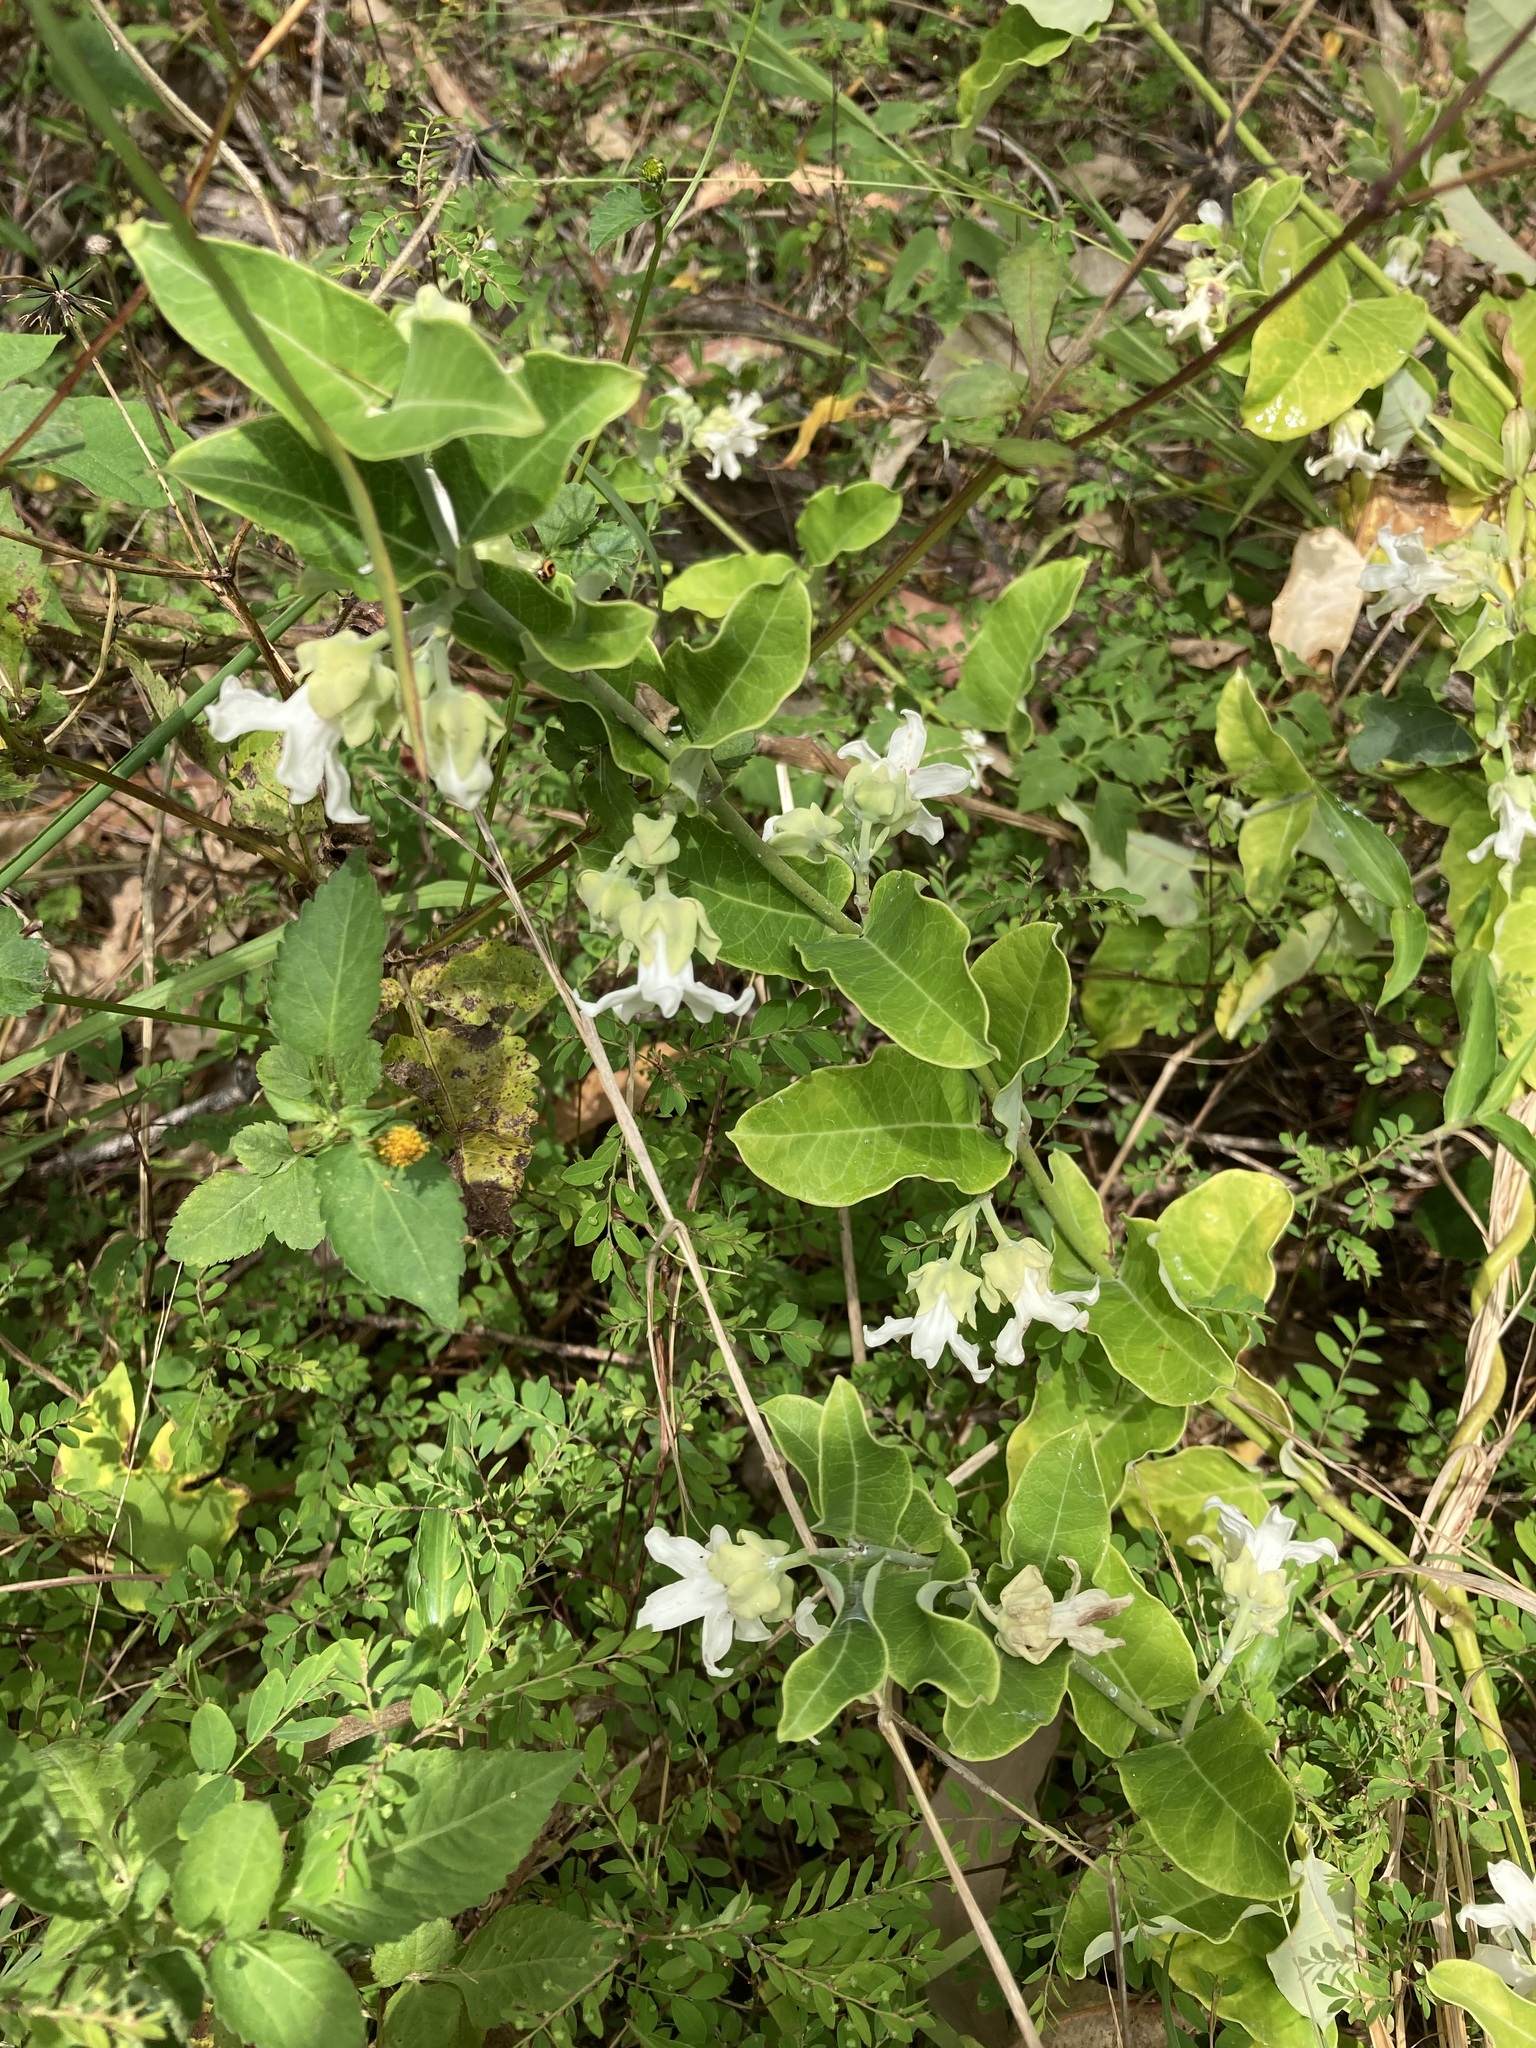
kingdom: Plantae
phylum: Tracheophyta
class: Magnoliopsida
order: Gentianales
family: Apocynaceae
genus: Araujia
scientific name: Araujia sericifera
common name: White bladderflower
